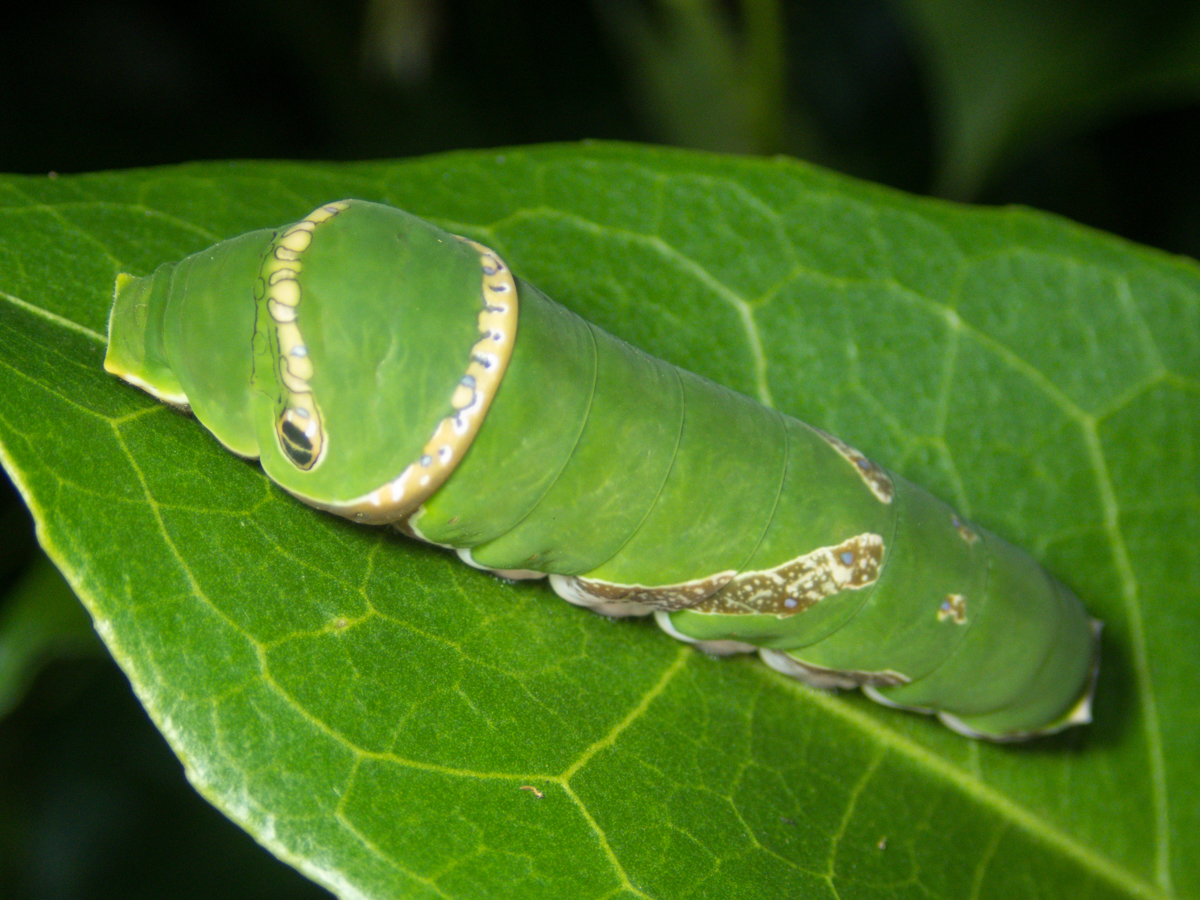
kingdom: Animalia
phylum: Arthropoda
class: Insecta
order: Lepidoptera
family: Papilionidae
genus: Papilio
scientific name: Papilio polytes
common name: Common mormon
